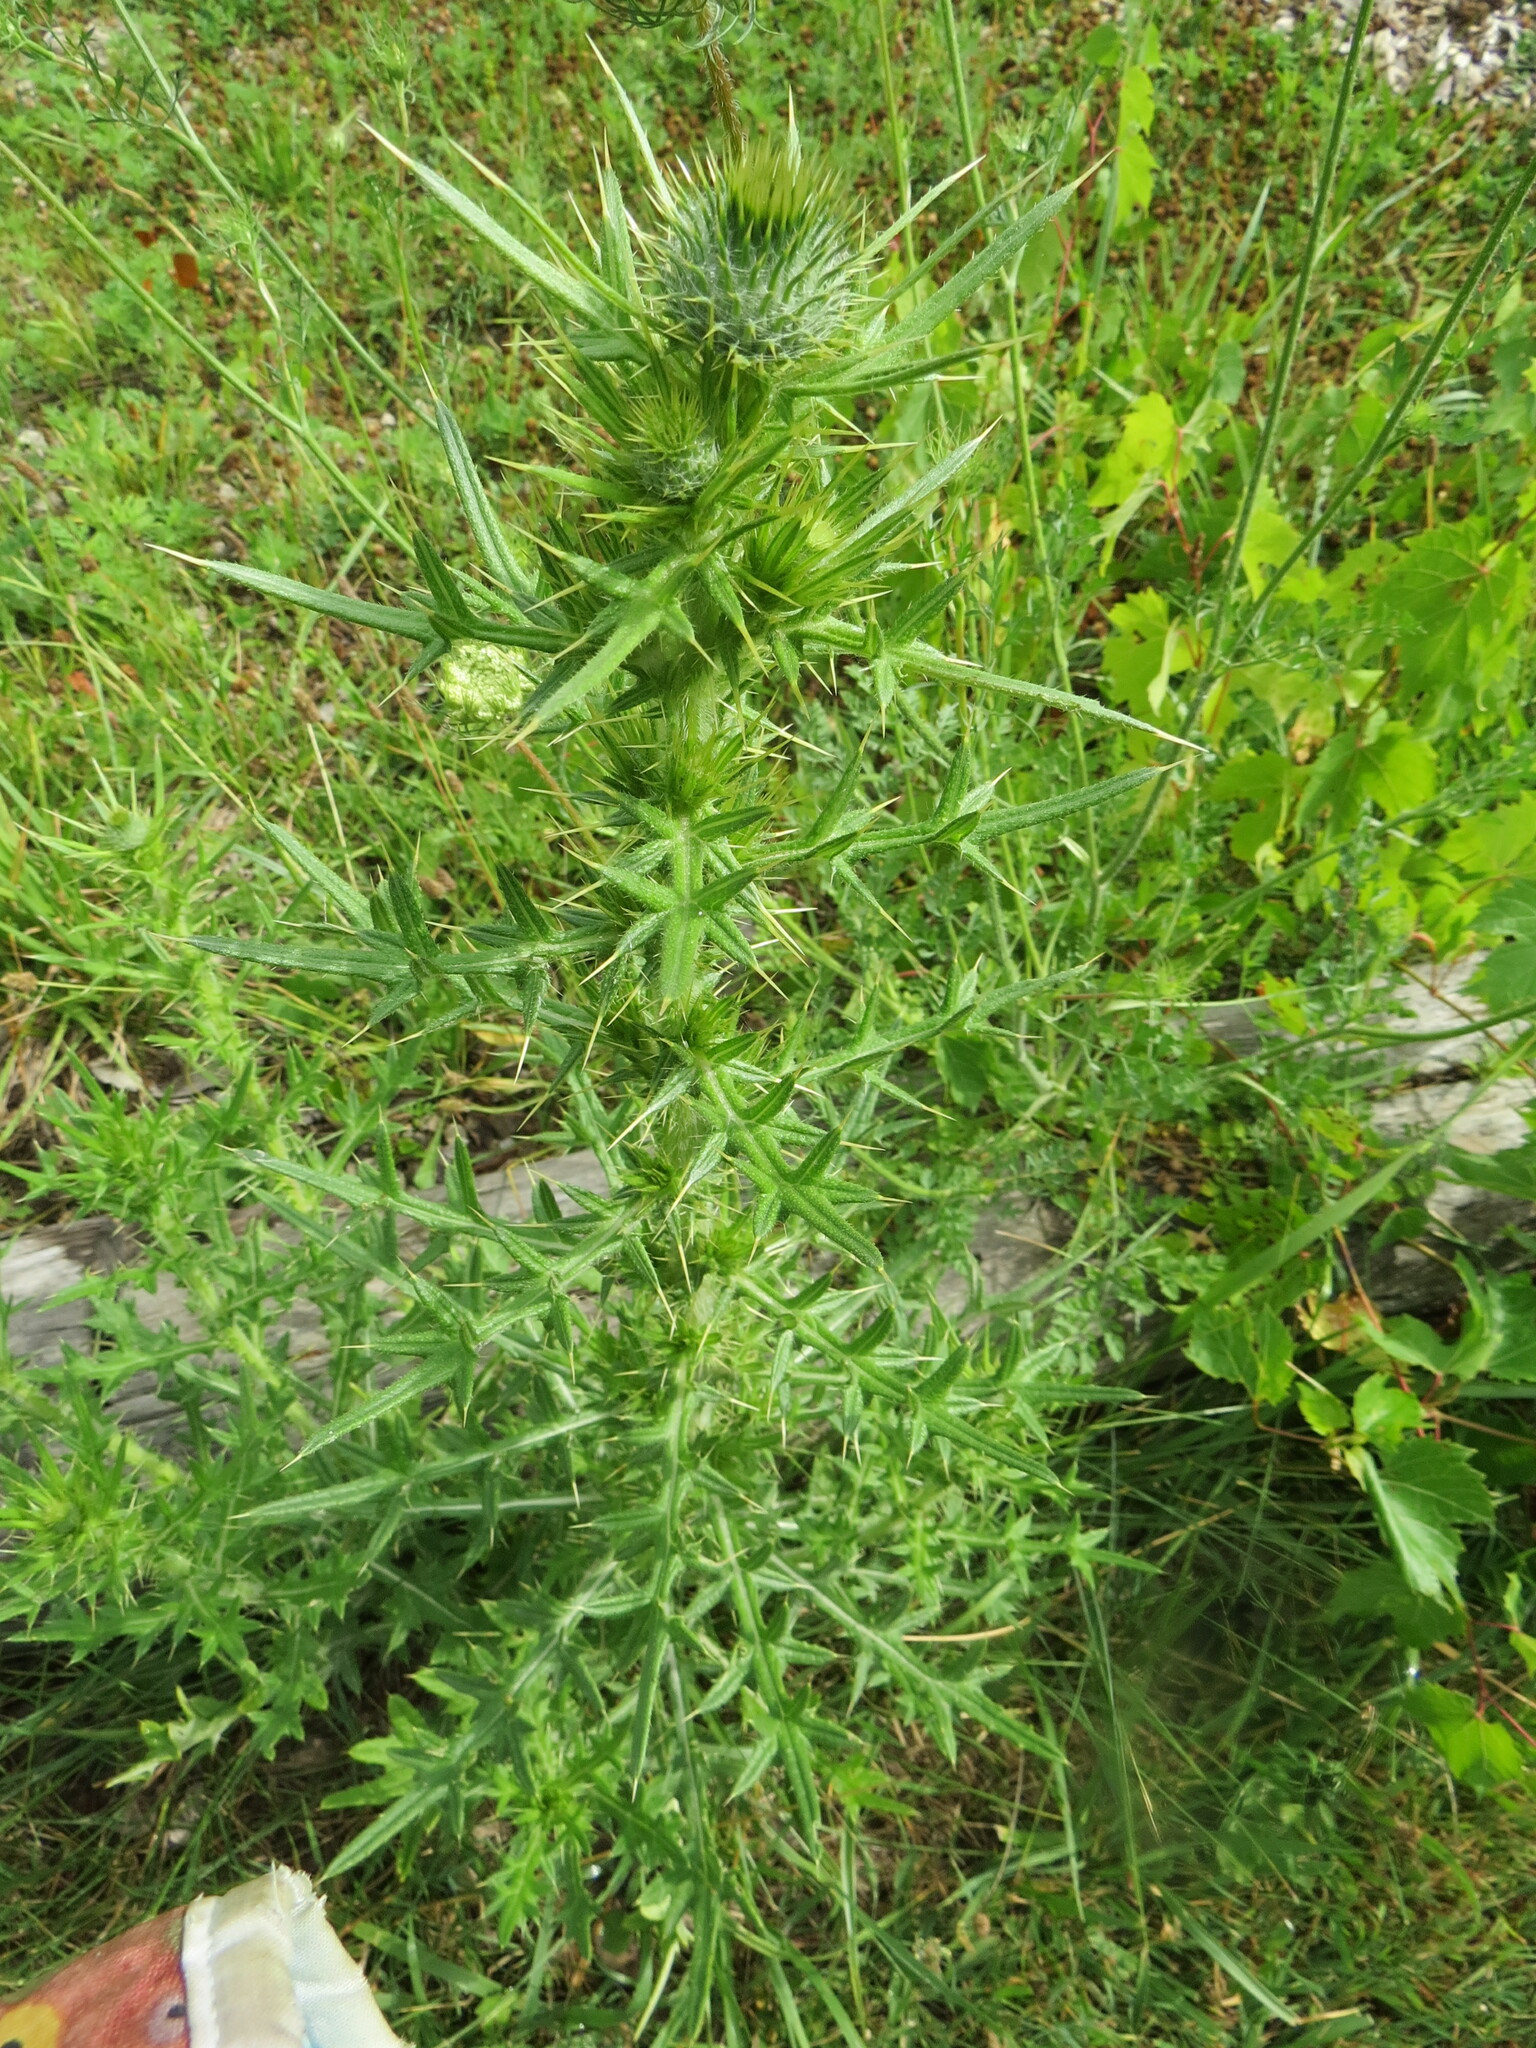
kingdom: Plantae
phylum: Tracheophyta
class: Magnoliopsida
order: Asterales
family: Asteraceae
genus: Cirsium
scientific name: Cirsium vulgare
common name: Bull thistle
